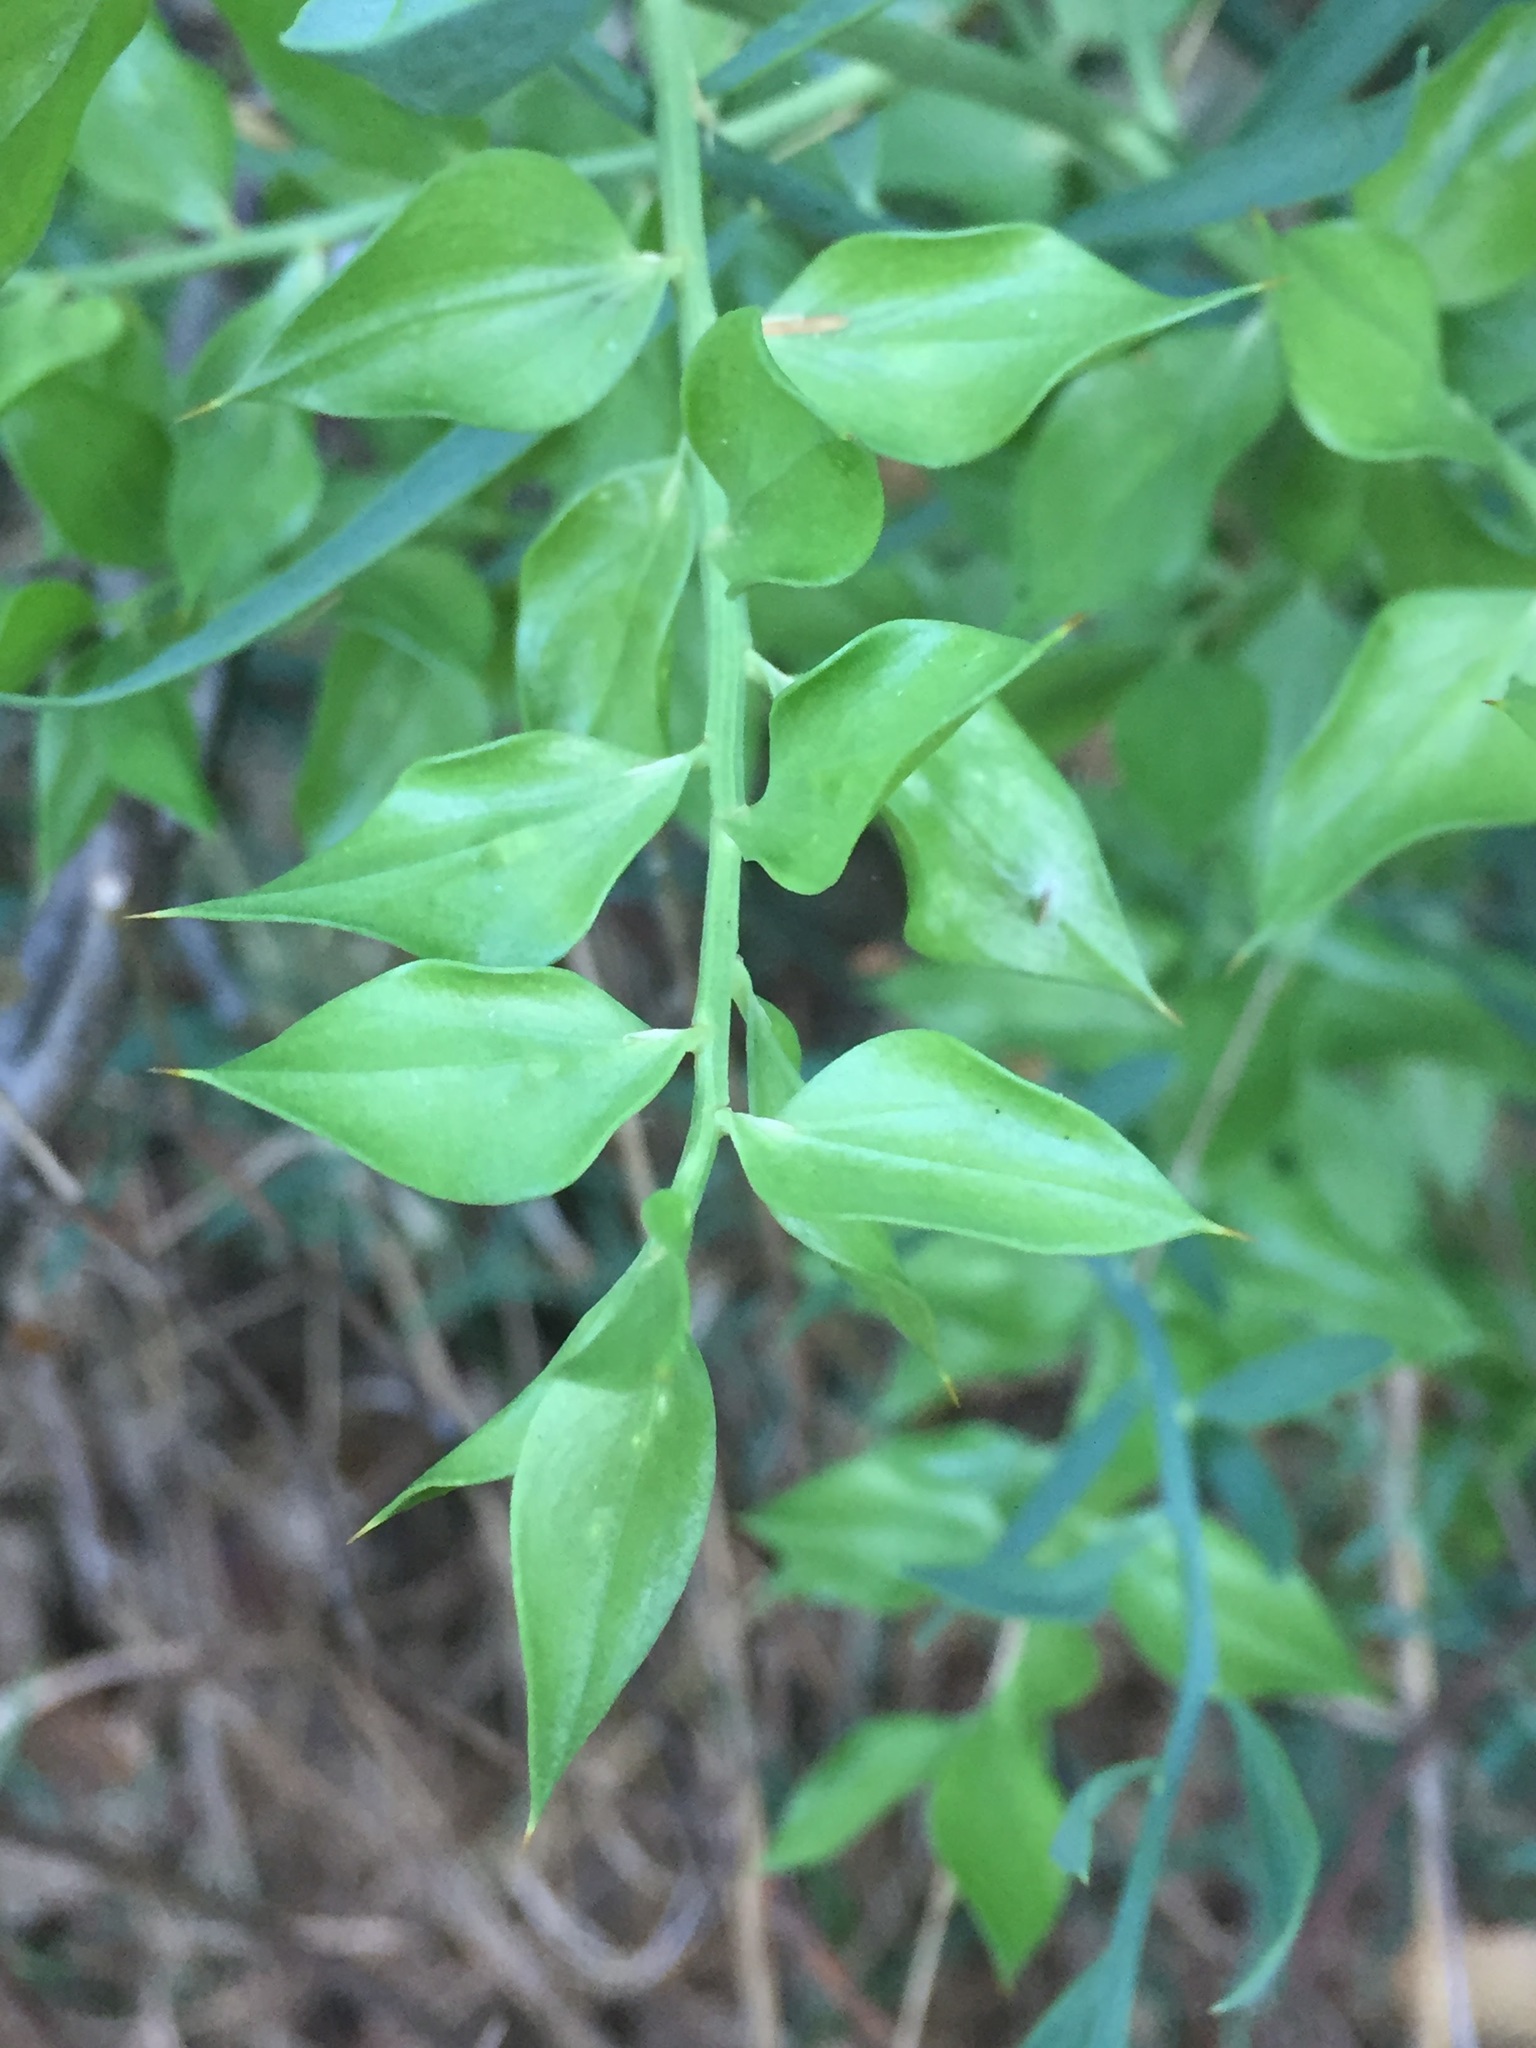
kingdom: Plantae
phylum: Tracheophyta
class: Liliopsida
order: Asparagales
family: Asparagaceae
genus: Ruscus
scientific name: Ruscus aculeatus
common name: Butcher's-broom
